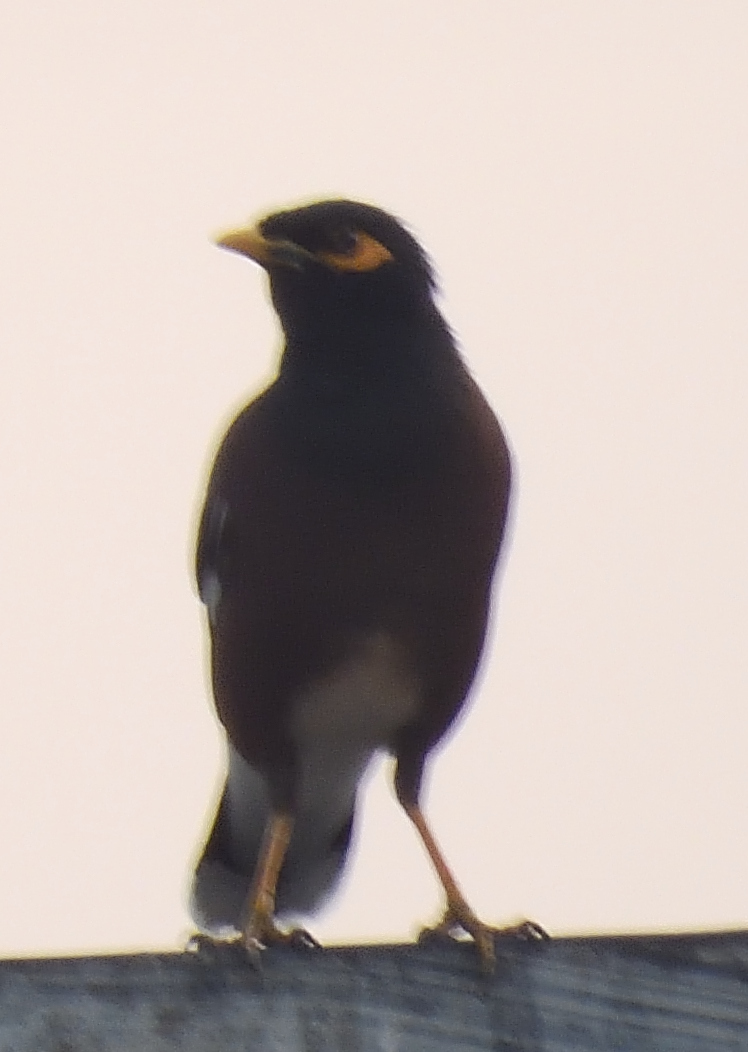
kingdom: Animalia
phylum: Chordata
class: Aves
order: Passeriformes
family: Sturnidae
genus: Acridotheres
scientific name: Acridotheres tristis
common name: Common myna
